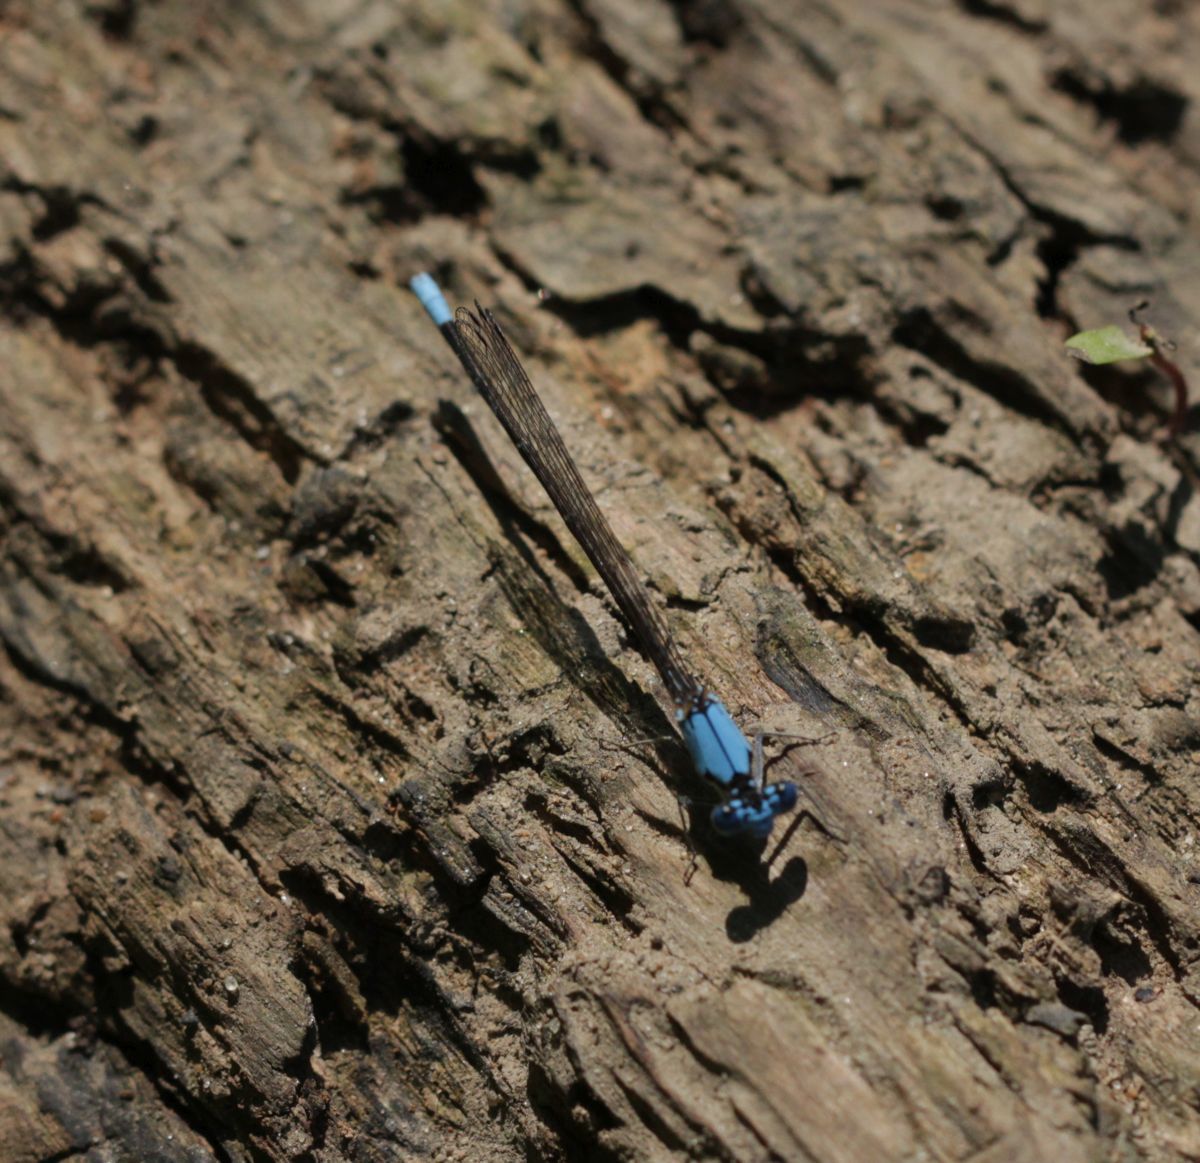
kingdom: Animalia
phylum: Arthropoda
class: Insecta
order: Odonata
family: Coenagrionidae
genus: Argia
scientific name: Argia apicalis
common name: Blue-fronted dancer
